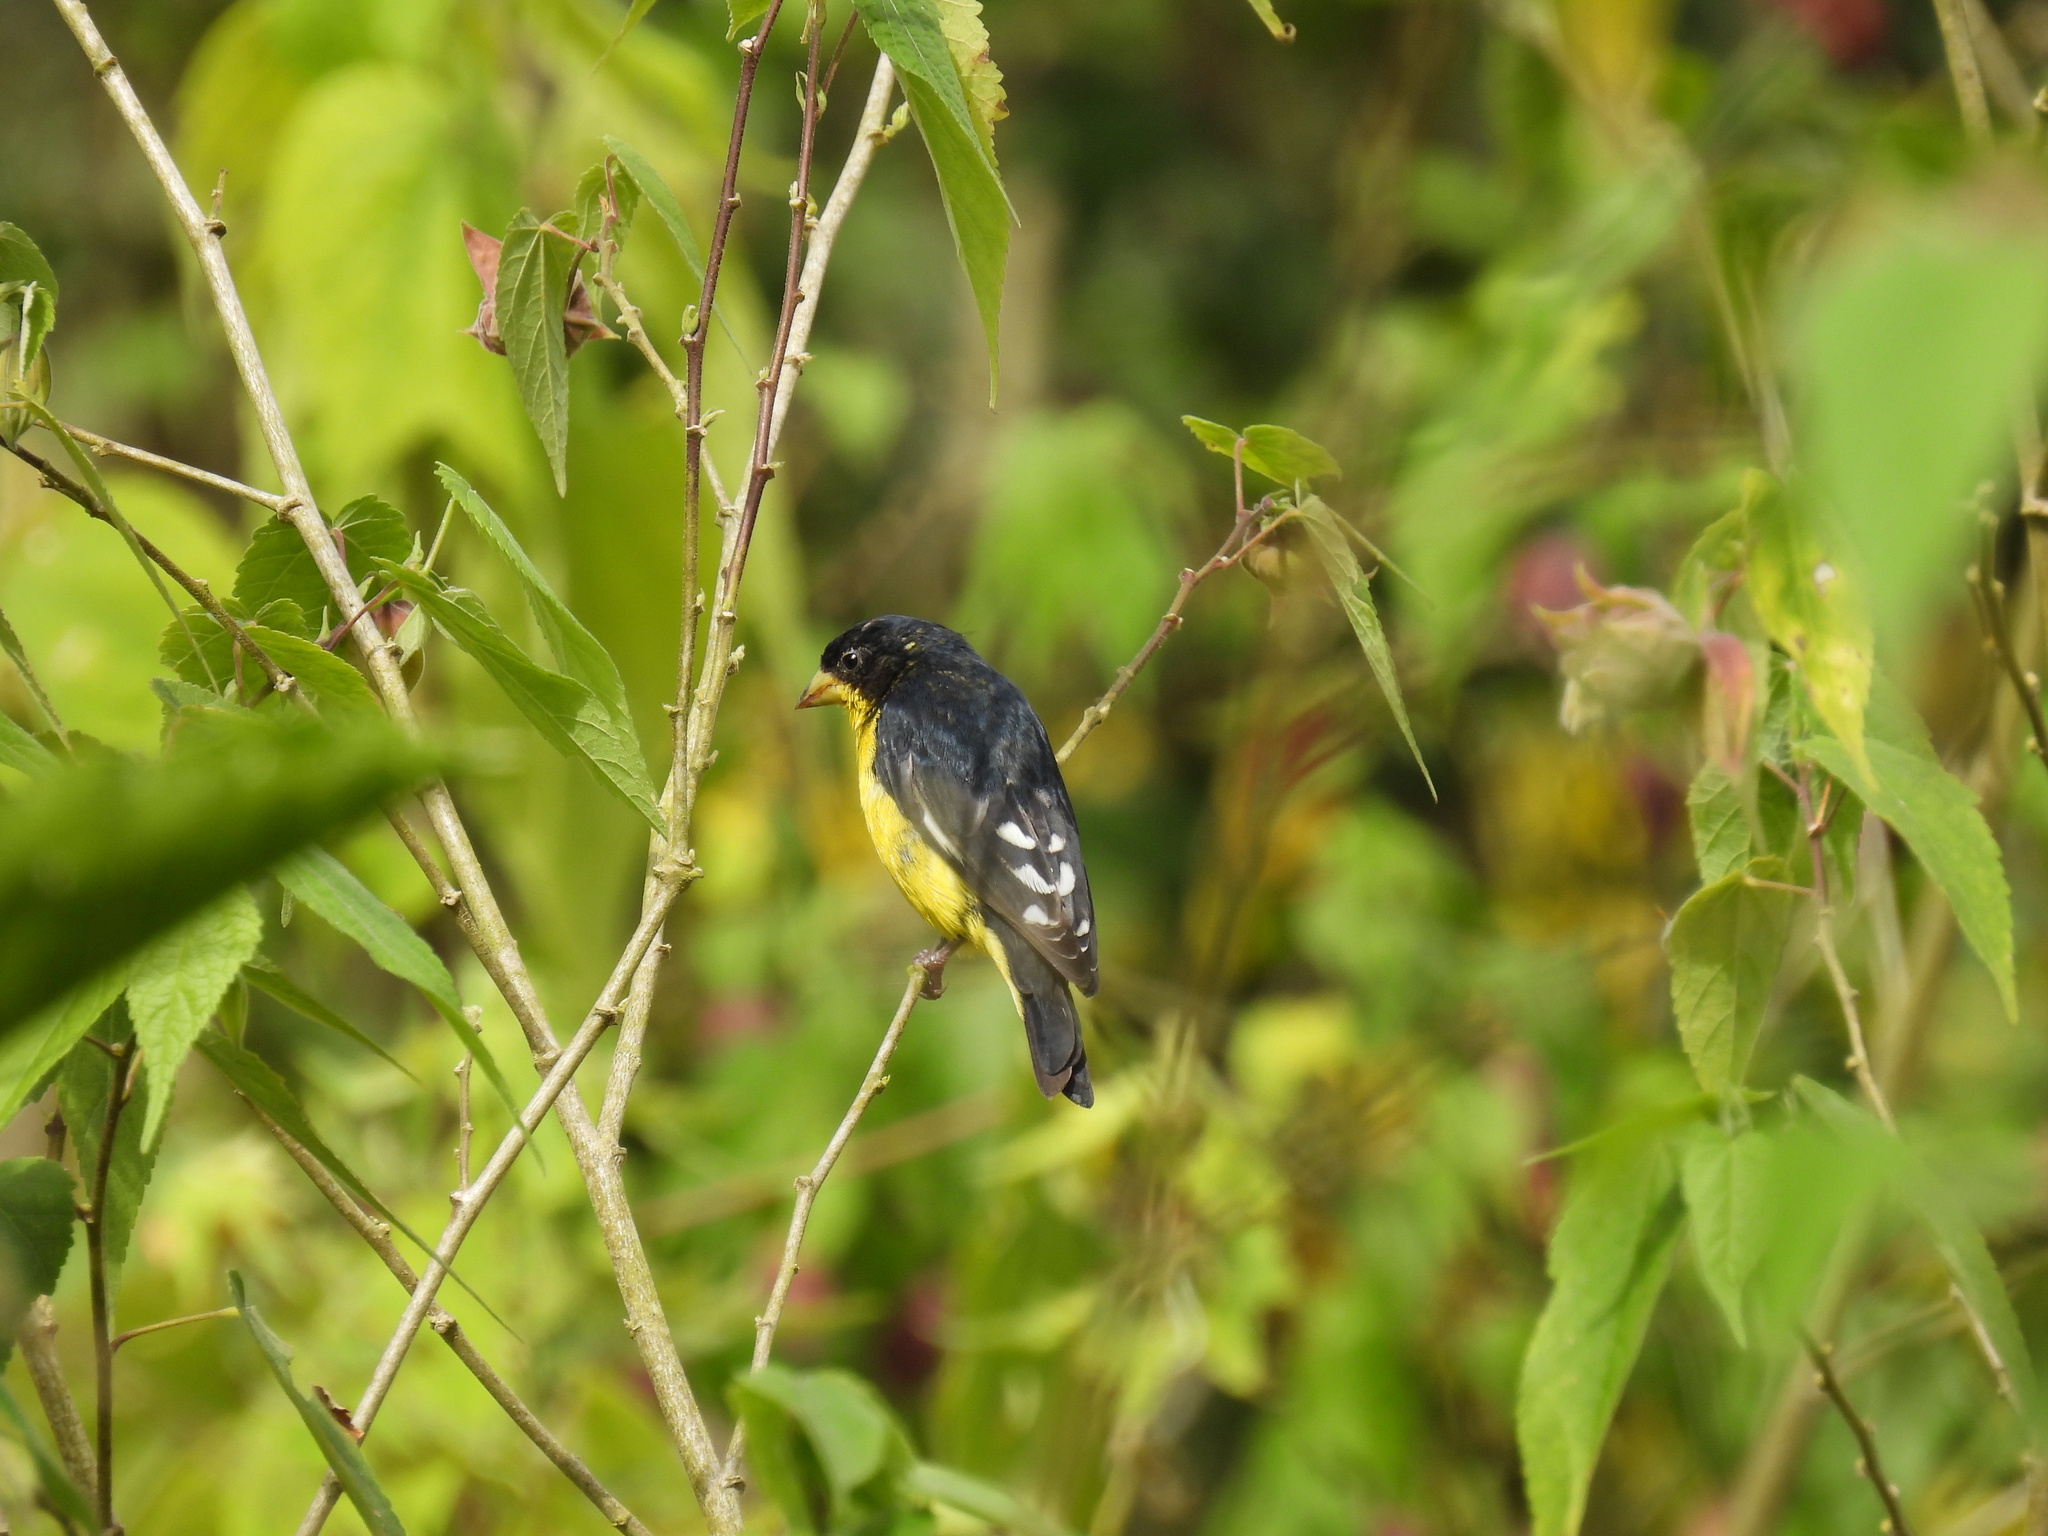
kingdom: Animalia
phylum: Chordata
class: Aves
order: Passeriformes
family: Fringillidae
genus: Spinus
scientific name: Spinus psaltria
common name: Lesser goldfinch
